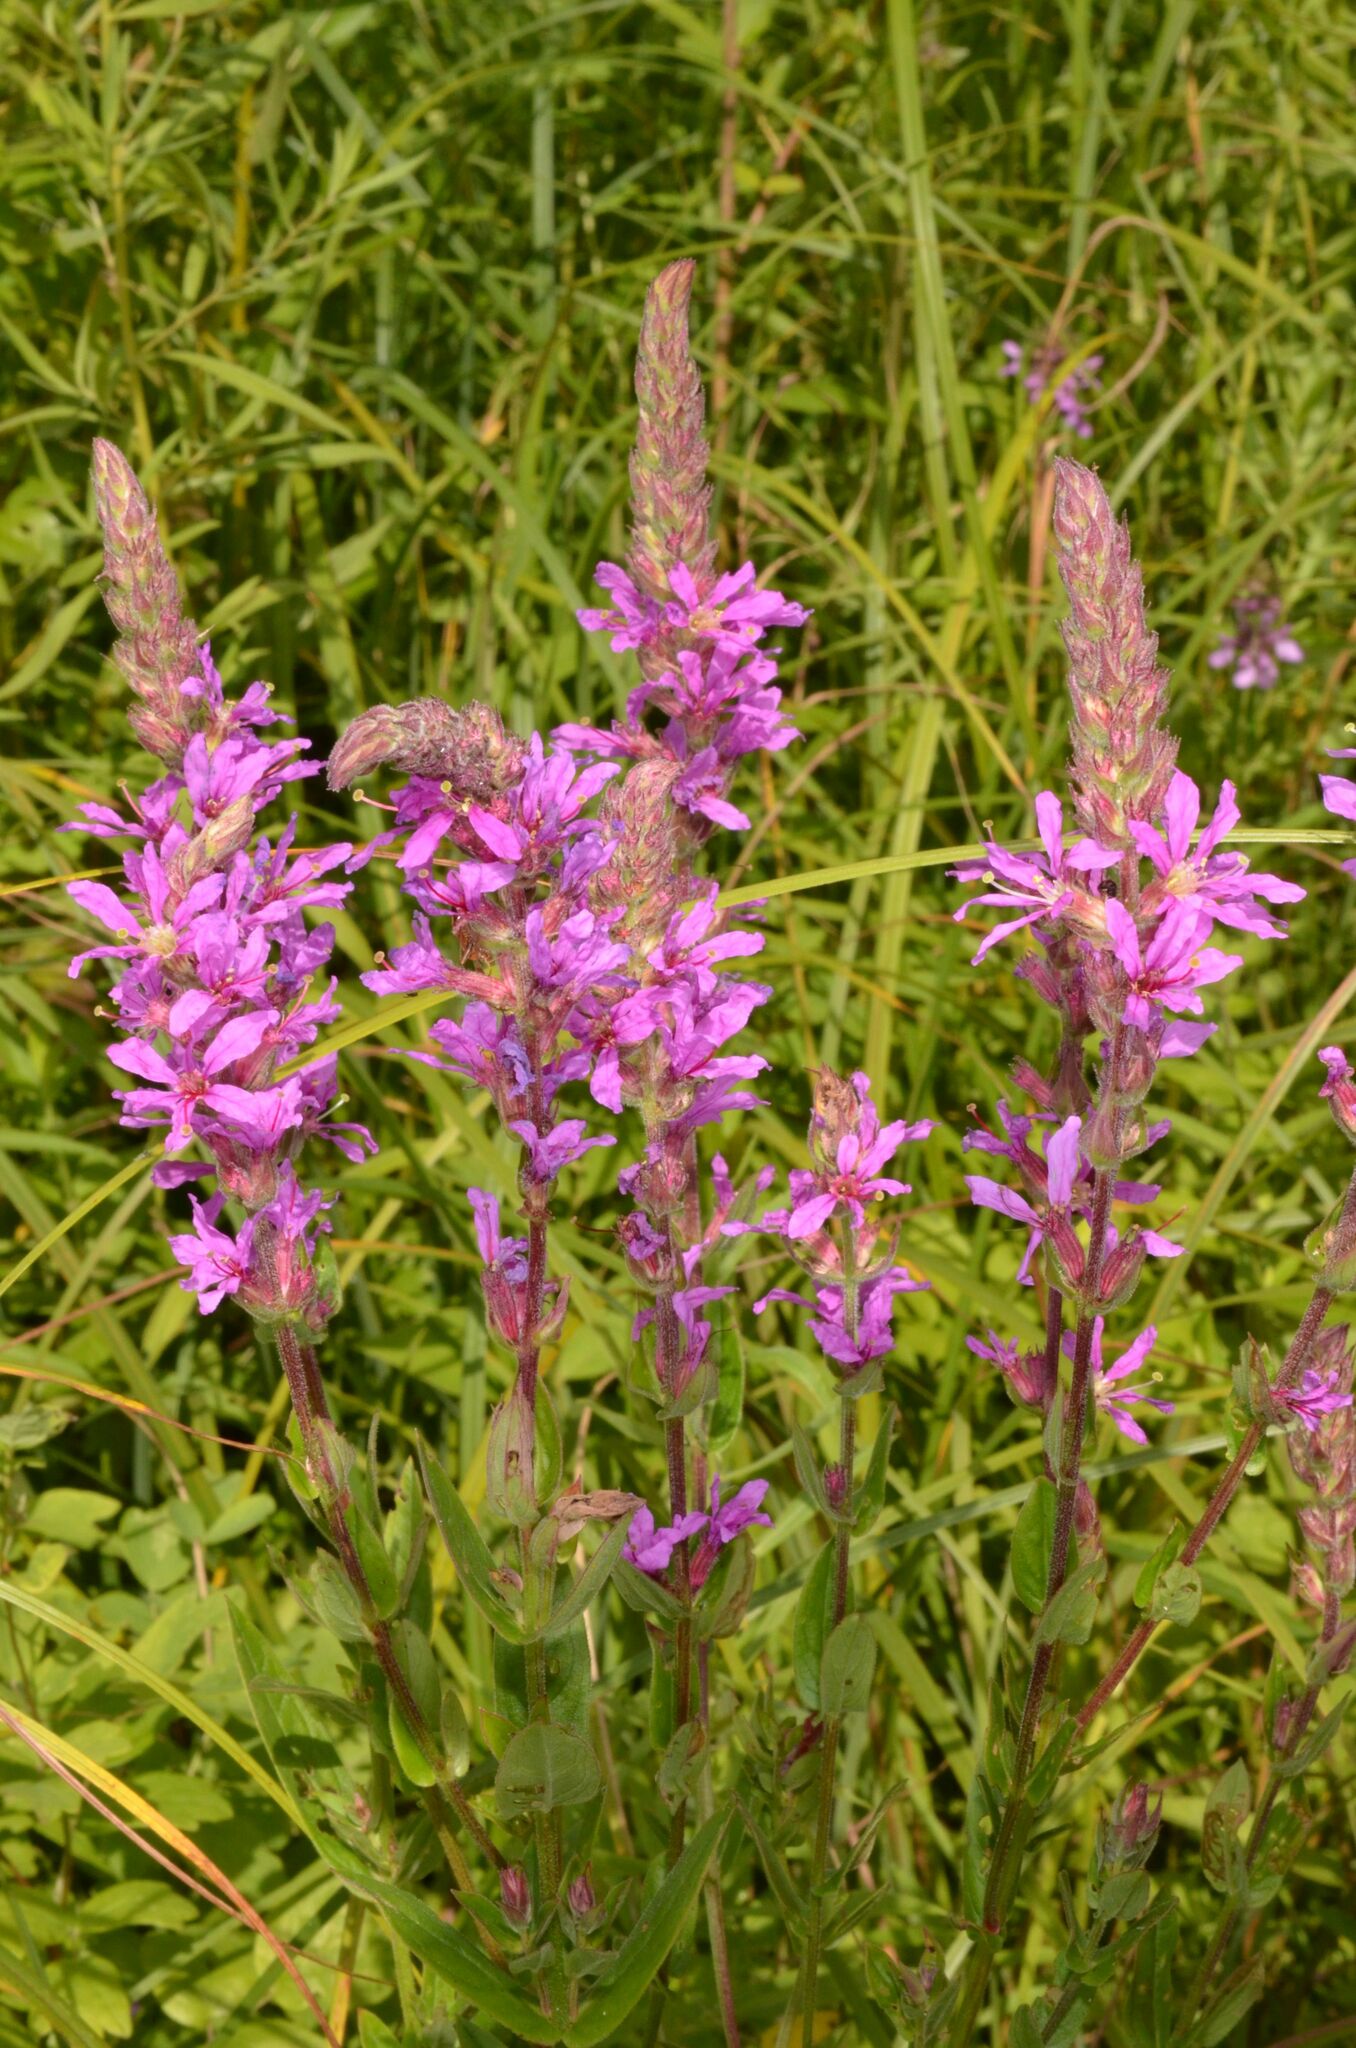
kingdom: Plantae
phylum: Tracheophyta
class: Magnoliopsida
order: Myrtales
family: Lythraceae
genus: Lythrum
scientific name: Lythrum salicaria
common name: Purple loosestrife
